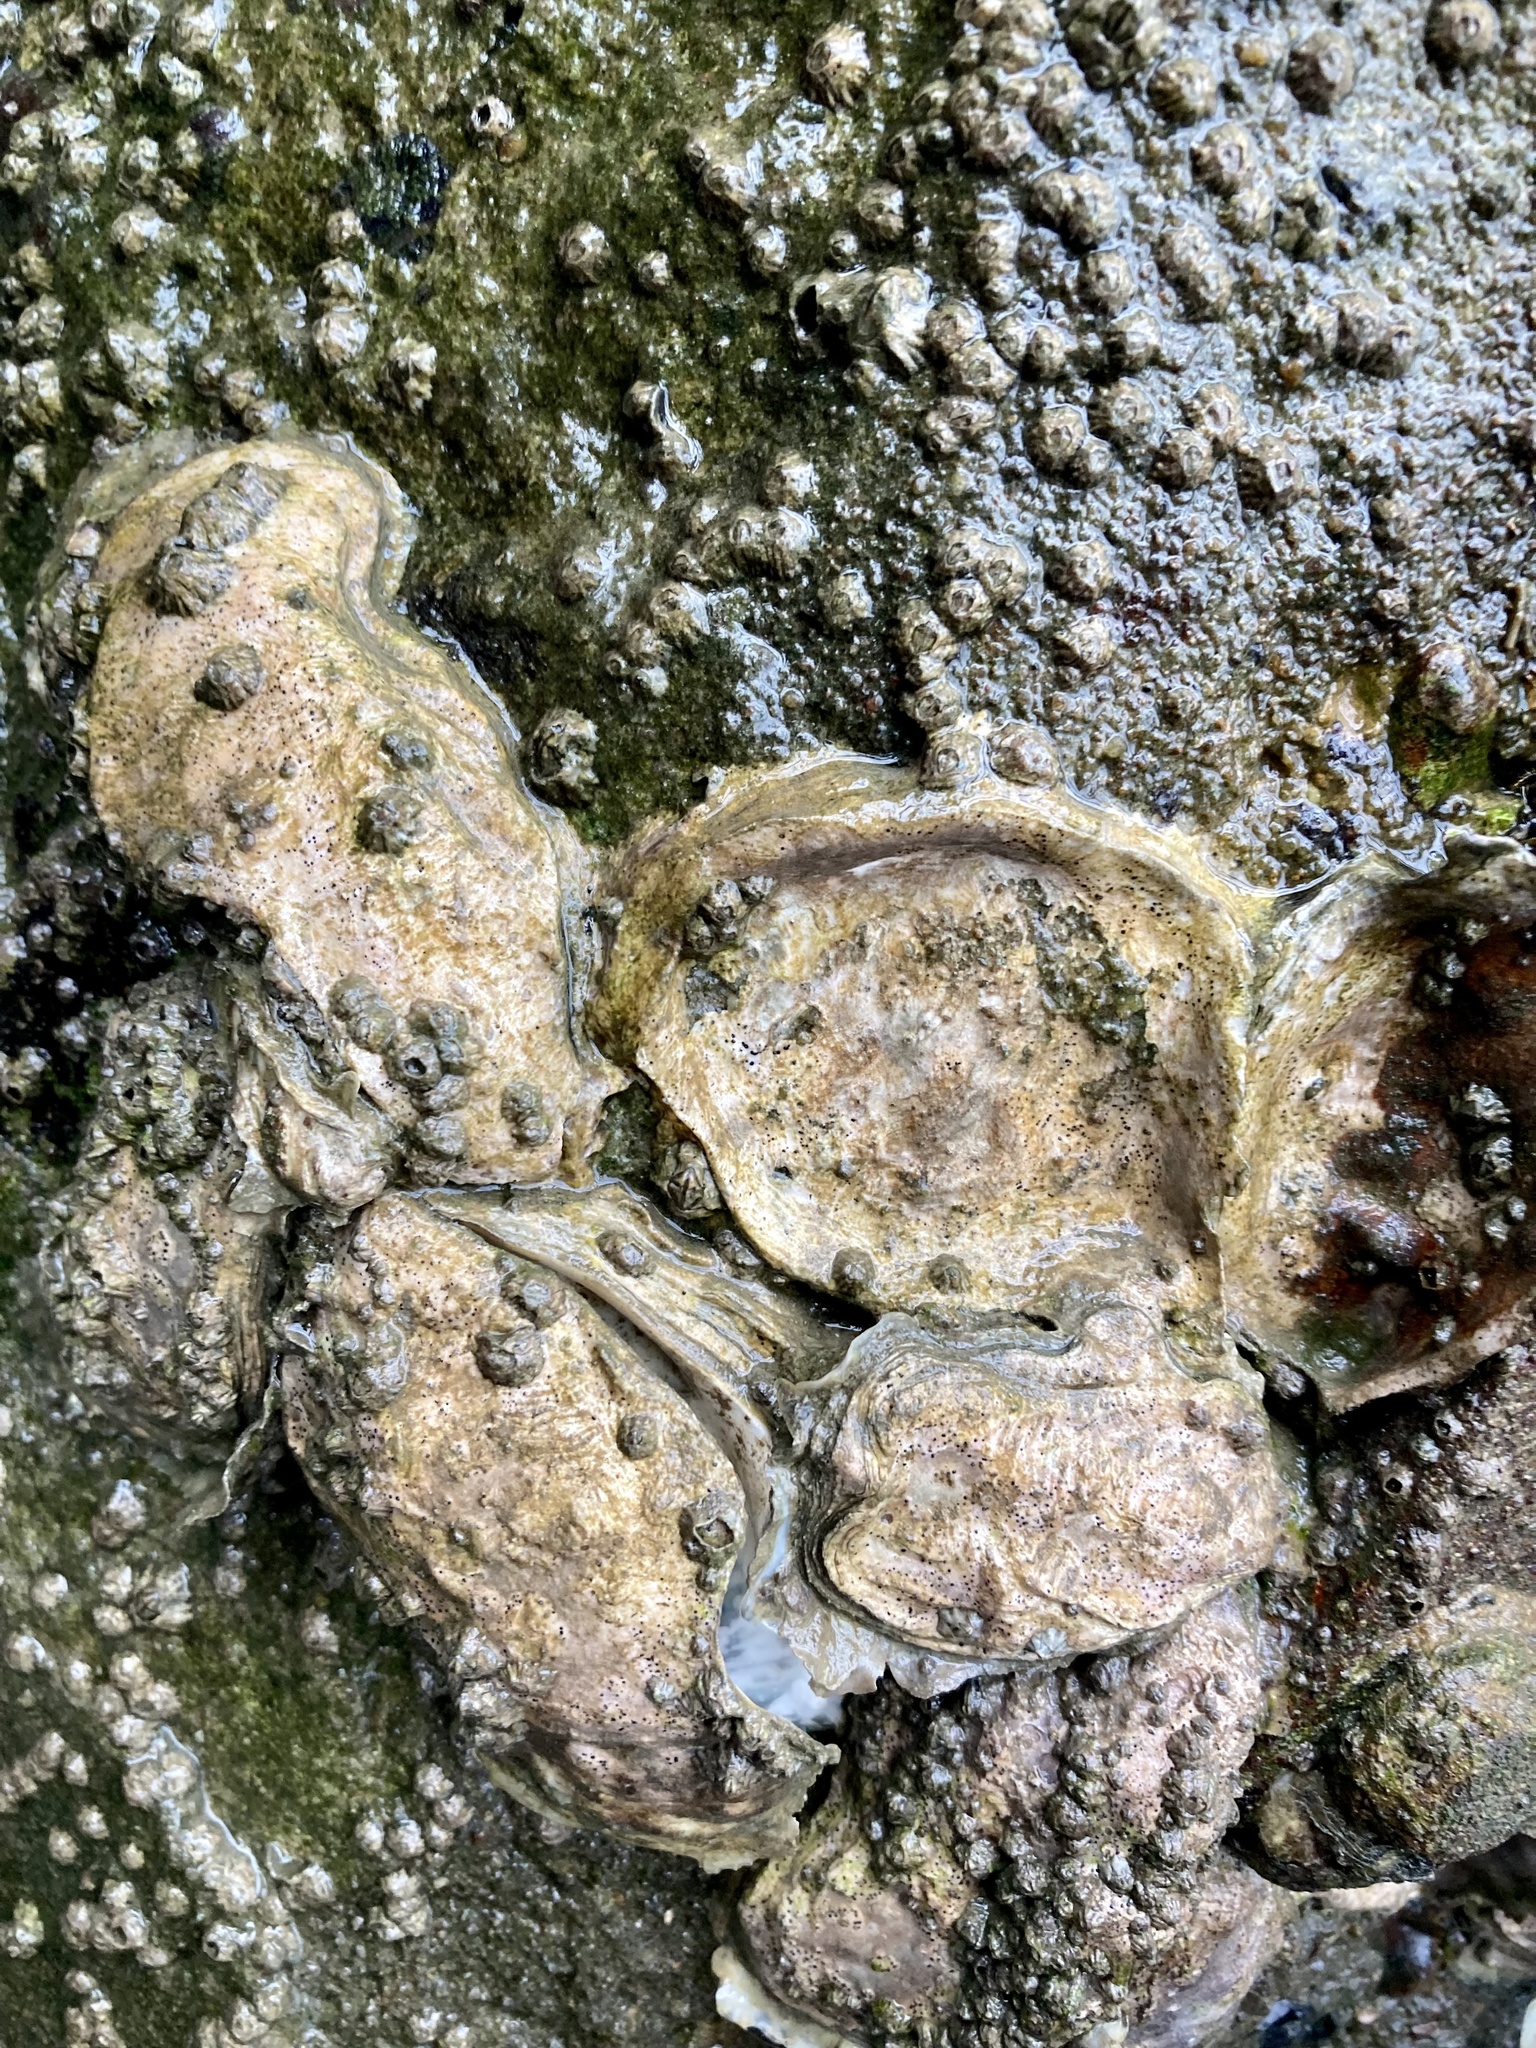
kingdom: Animalia
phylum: Mollusca
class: Bivalvia
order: Ostreida
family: Ostreidae
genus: Magallana
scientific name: Magallana gigas
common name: Pacific oyster
